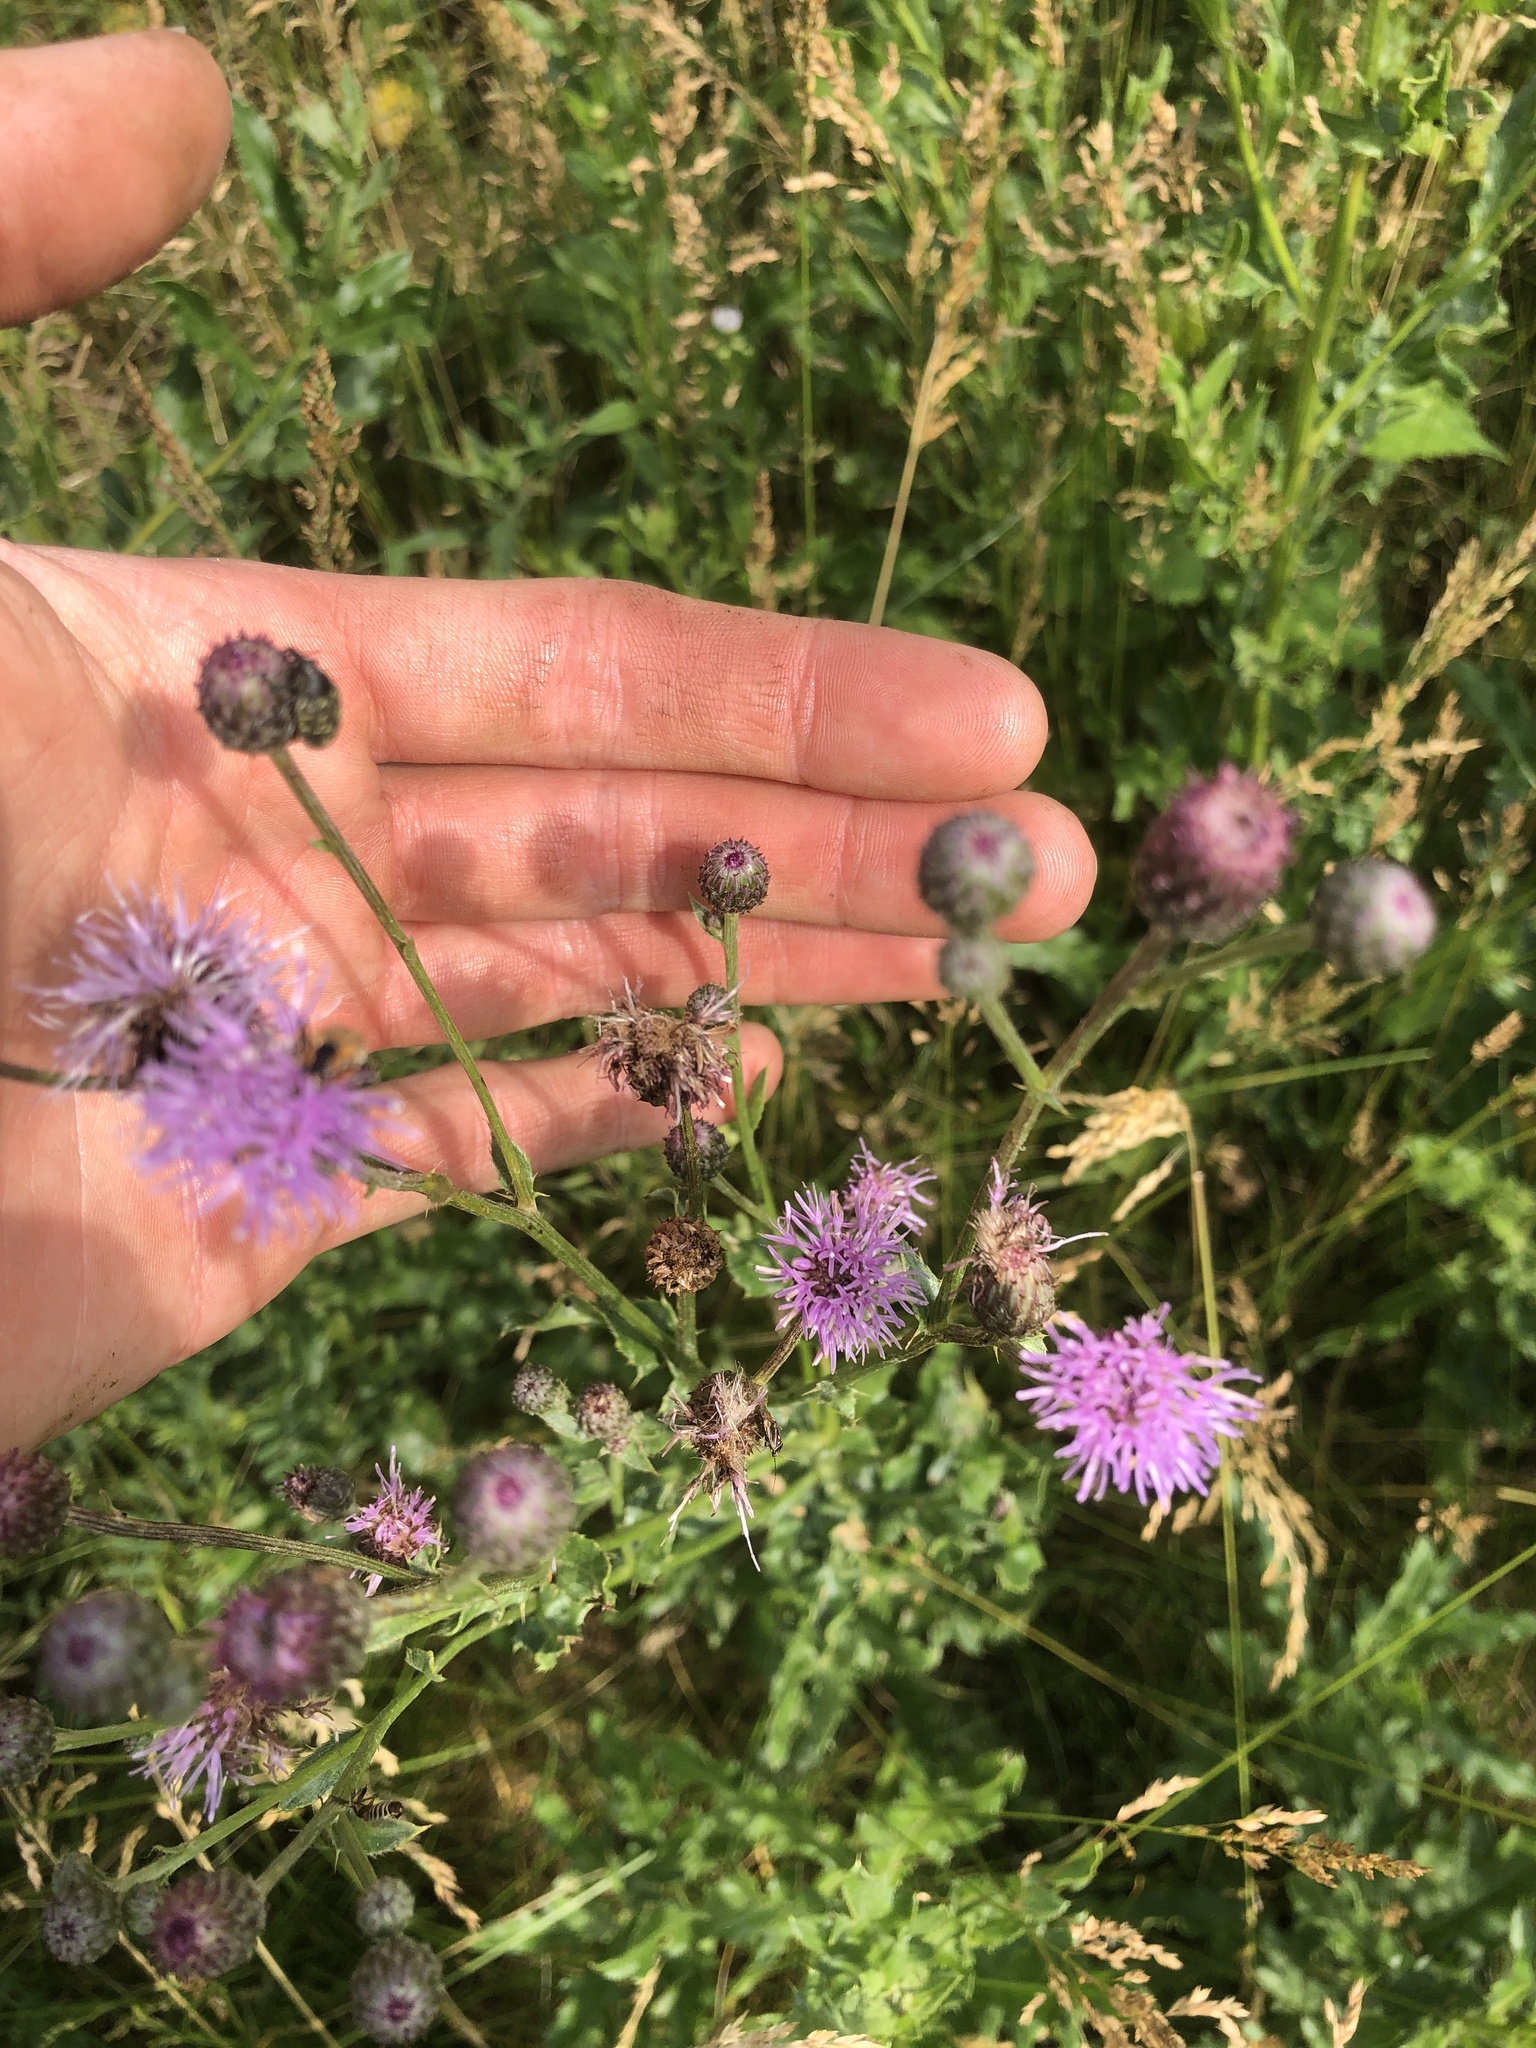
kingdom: Plantae
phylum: Tracheophyta
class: Magnoliopsida
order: Asterales
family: Asteraceae
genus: Cirsium
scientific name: Cirsium arvense
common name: Creeping thistle
